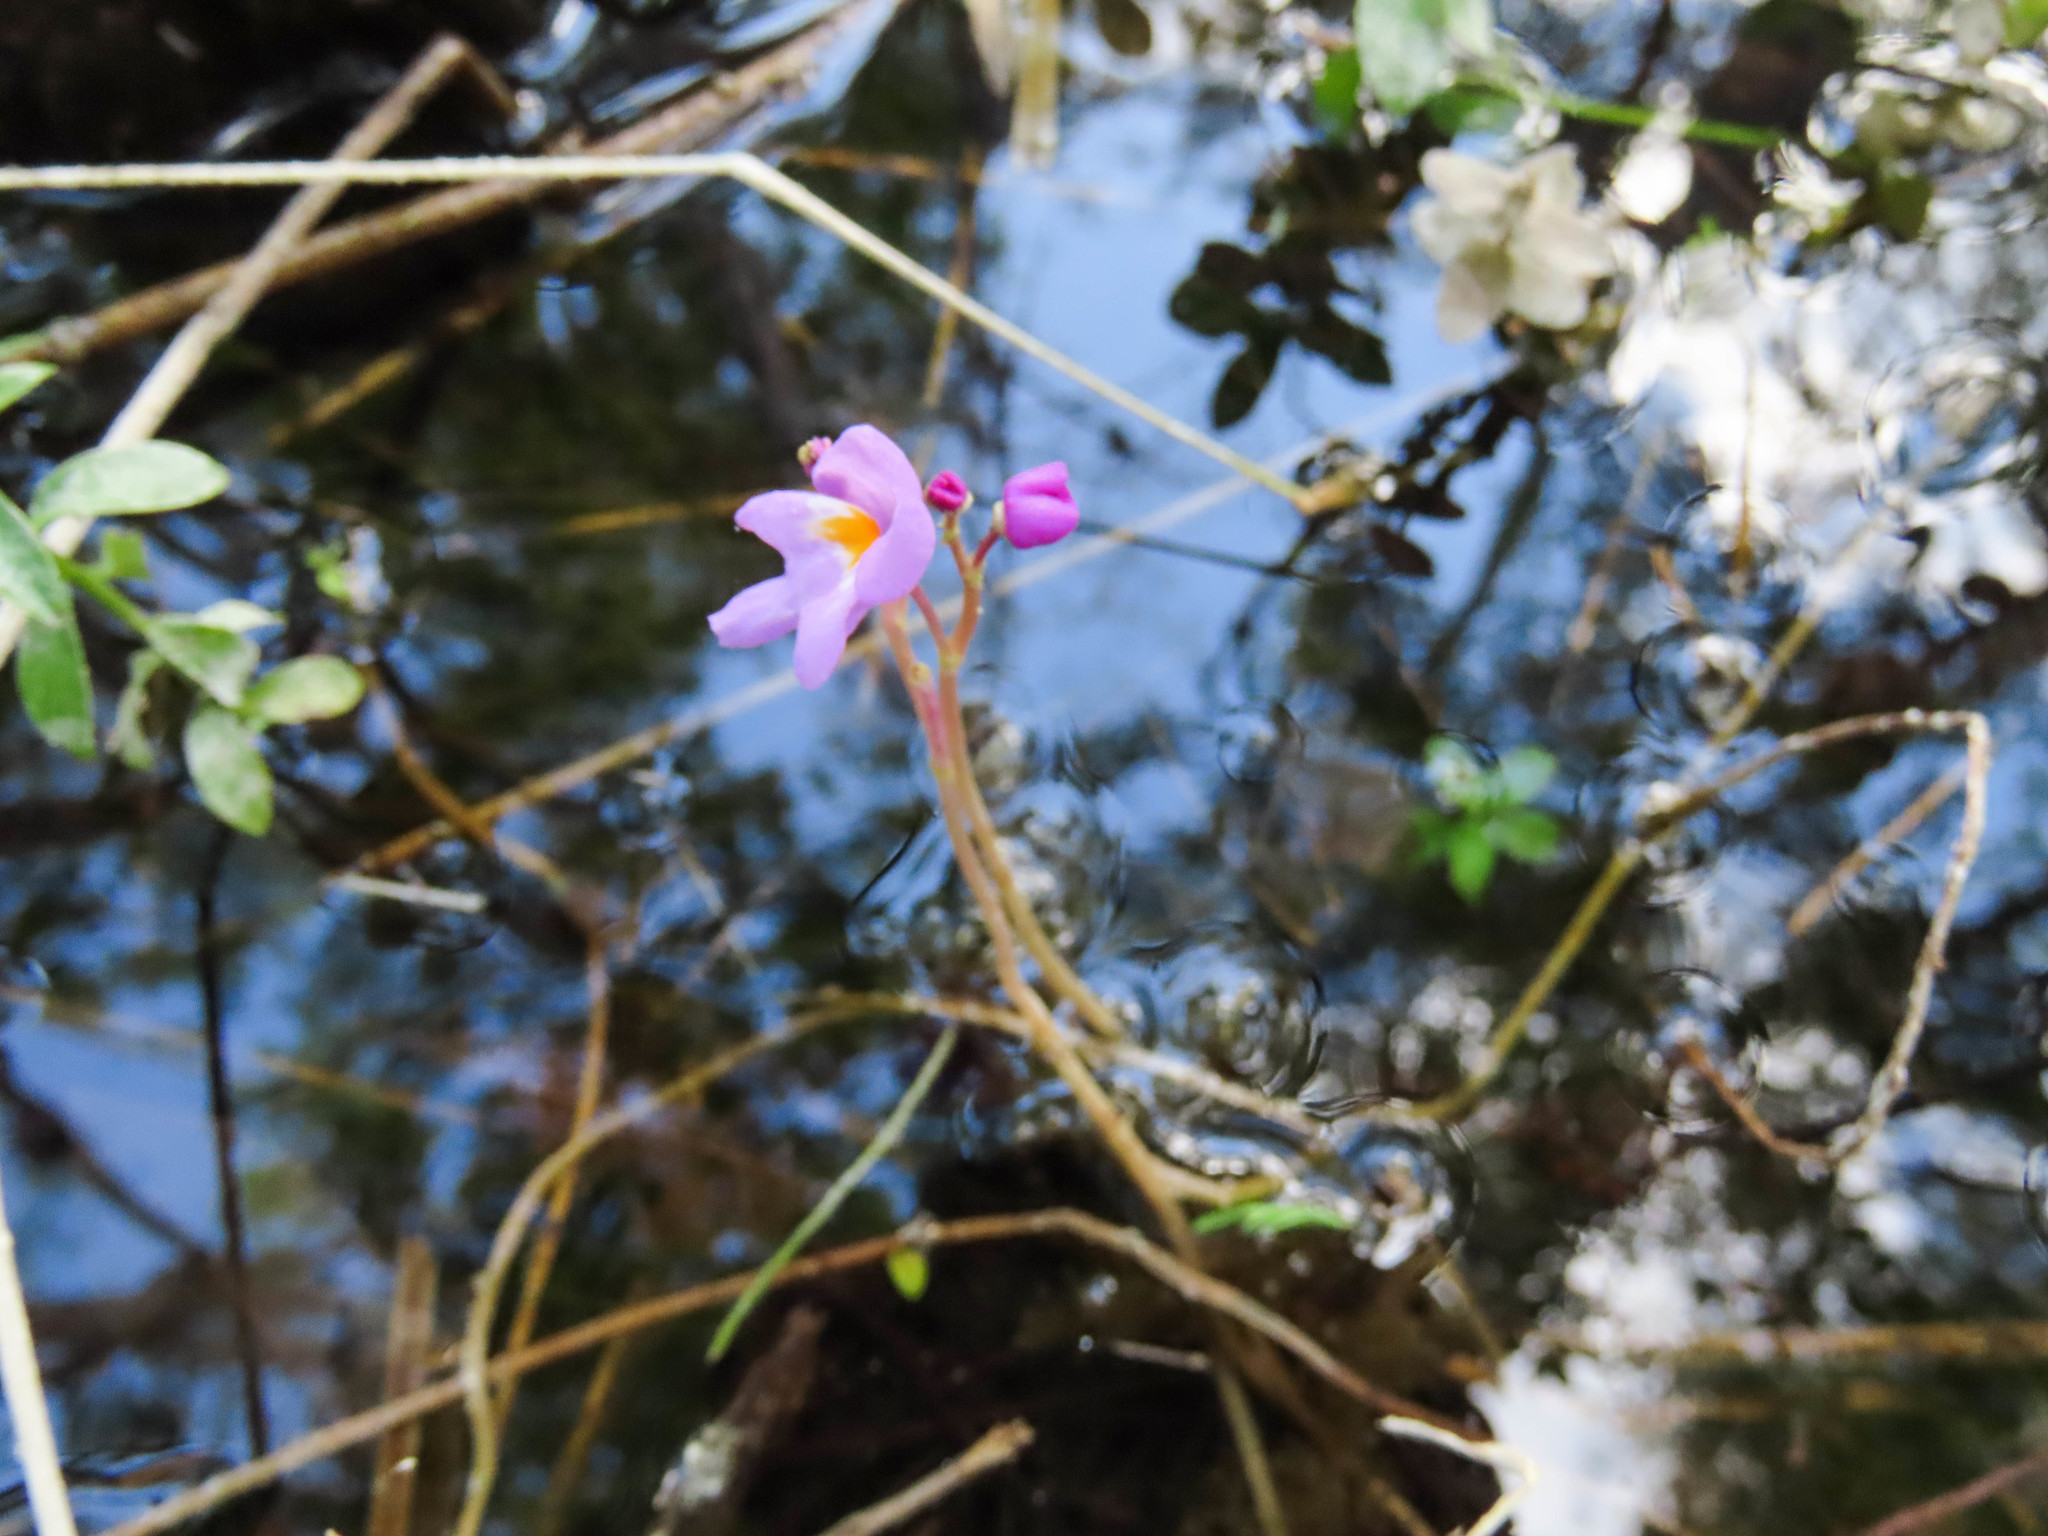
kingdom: Plantae
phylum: Tracheophyta
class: Magnoliopsida
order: Lamiales
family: Lentibulariaceae
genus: Utricularia
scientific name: Utricularia purpurea
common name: Eastern purple bladderwort
